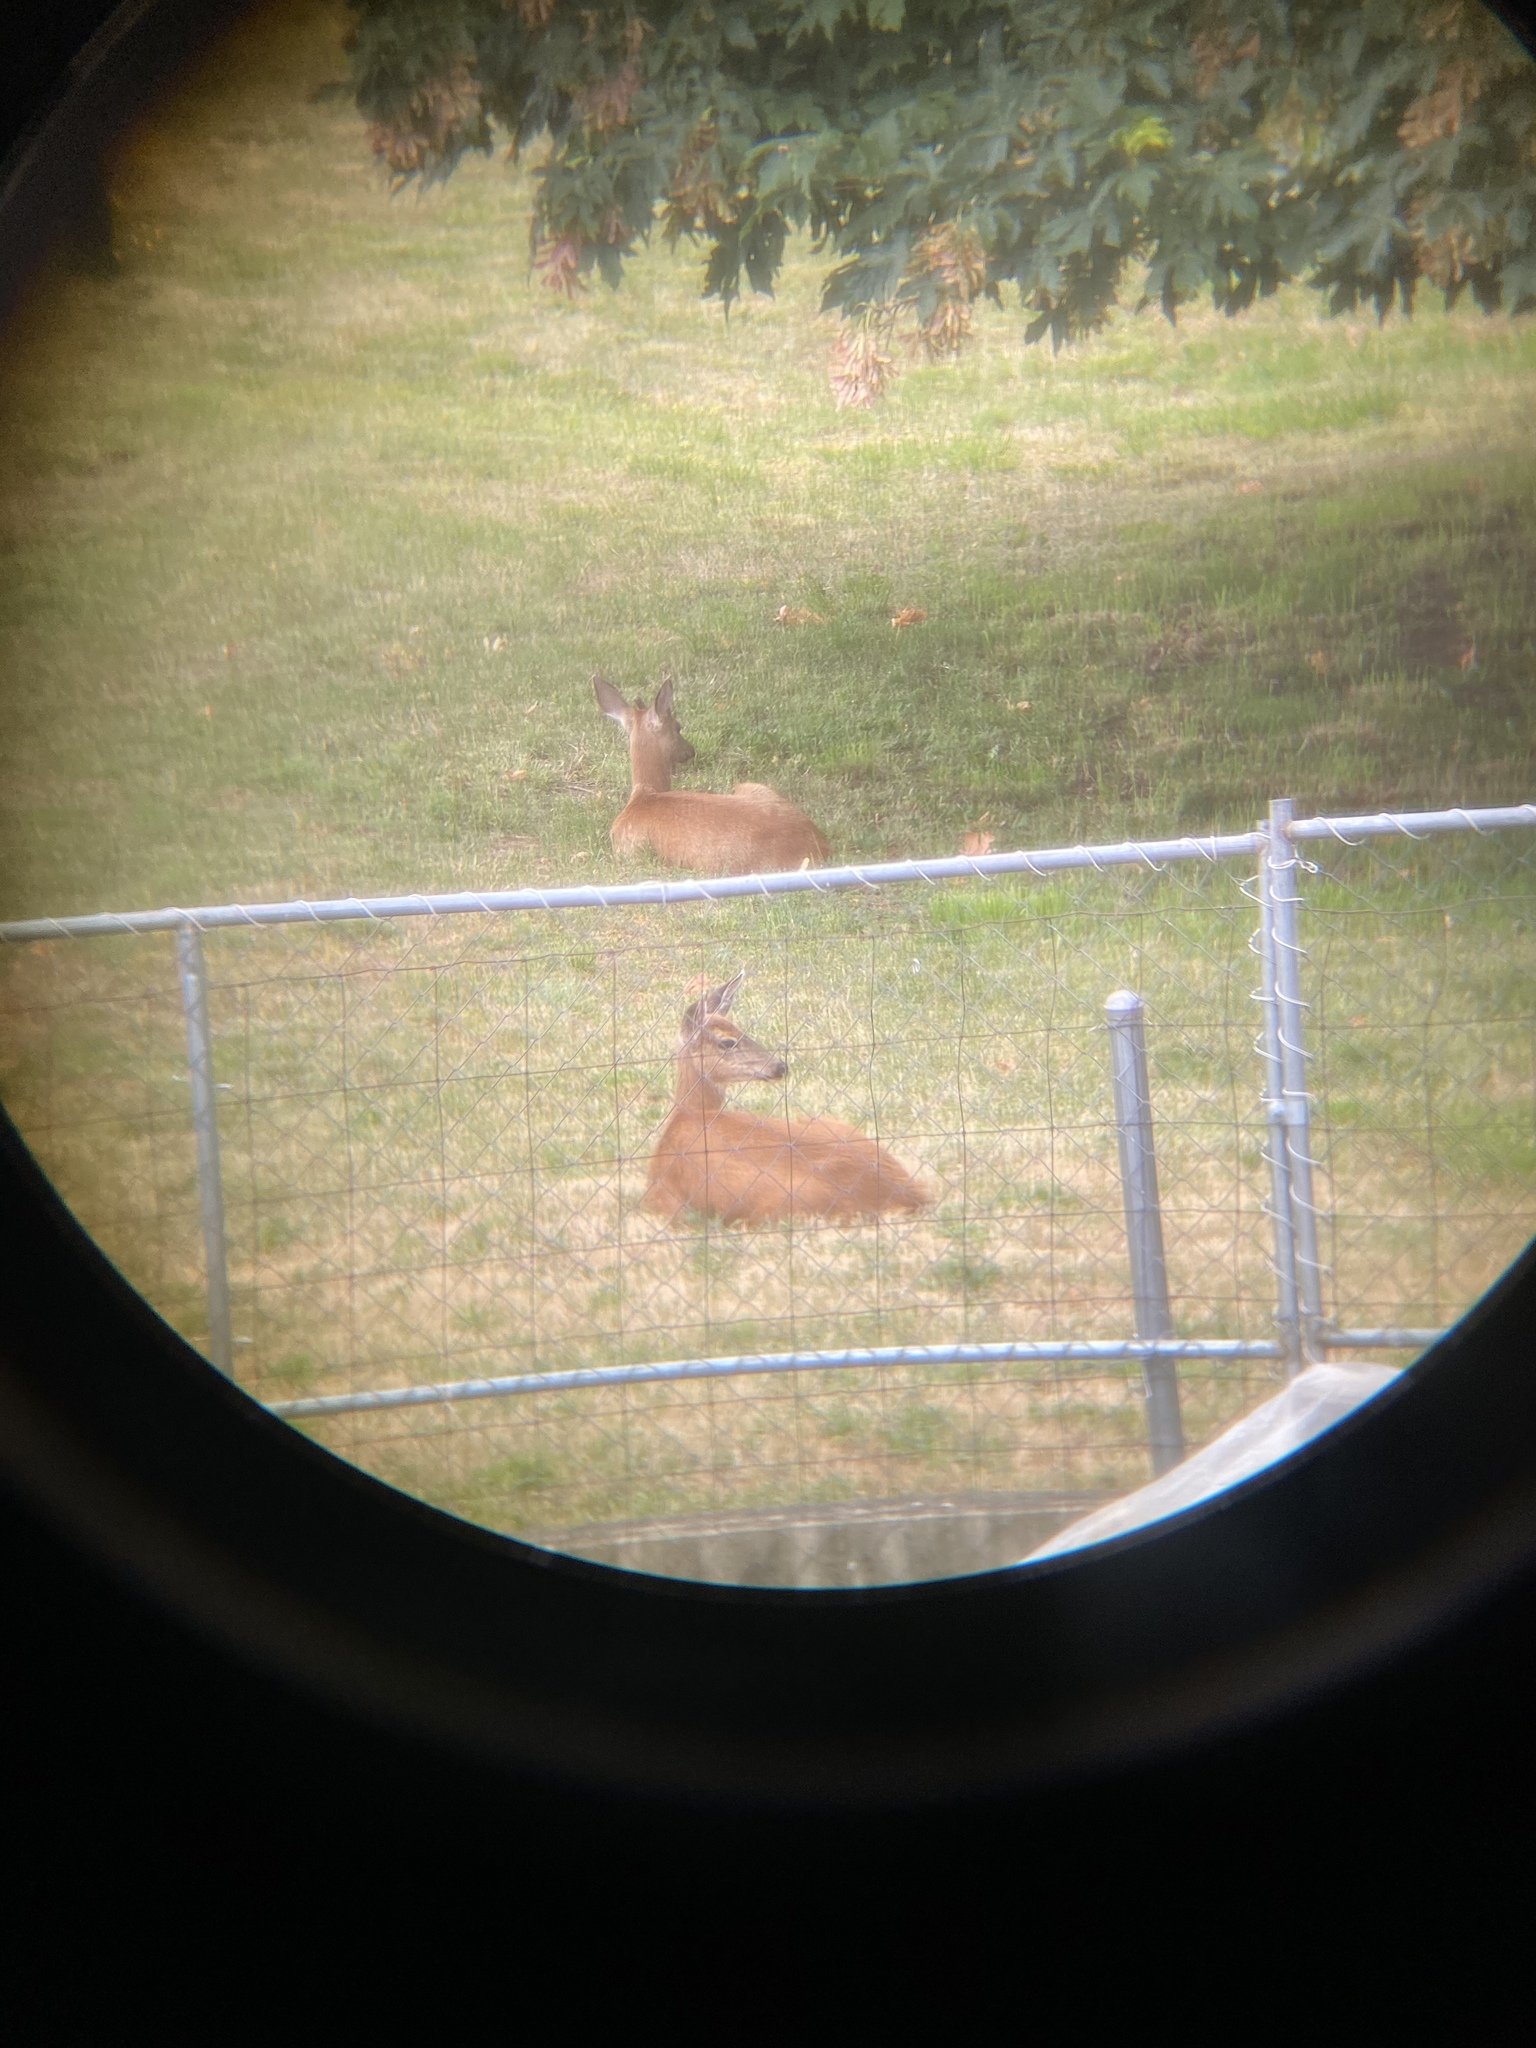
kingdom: Animalia
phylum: Chordata
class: Mammalia
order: Artiodactyla
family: Cervidae
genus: Odocoileus
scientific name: Odocoileus hemionus
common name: Mule deer
